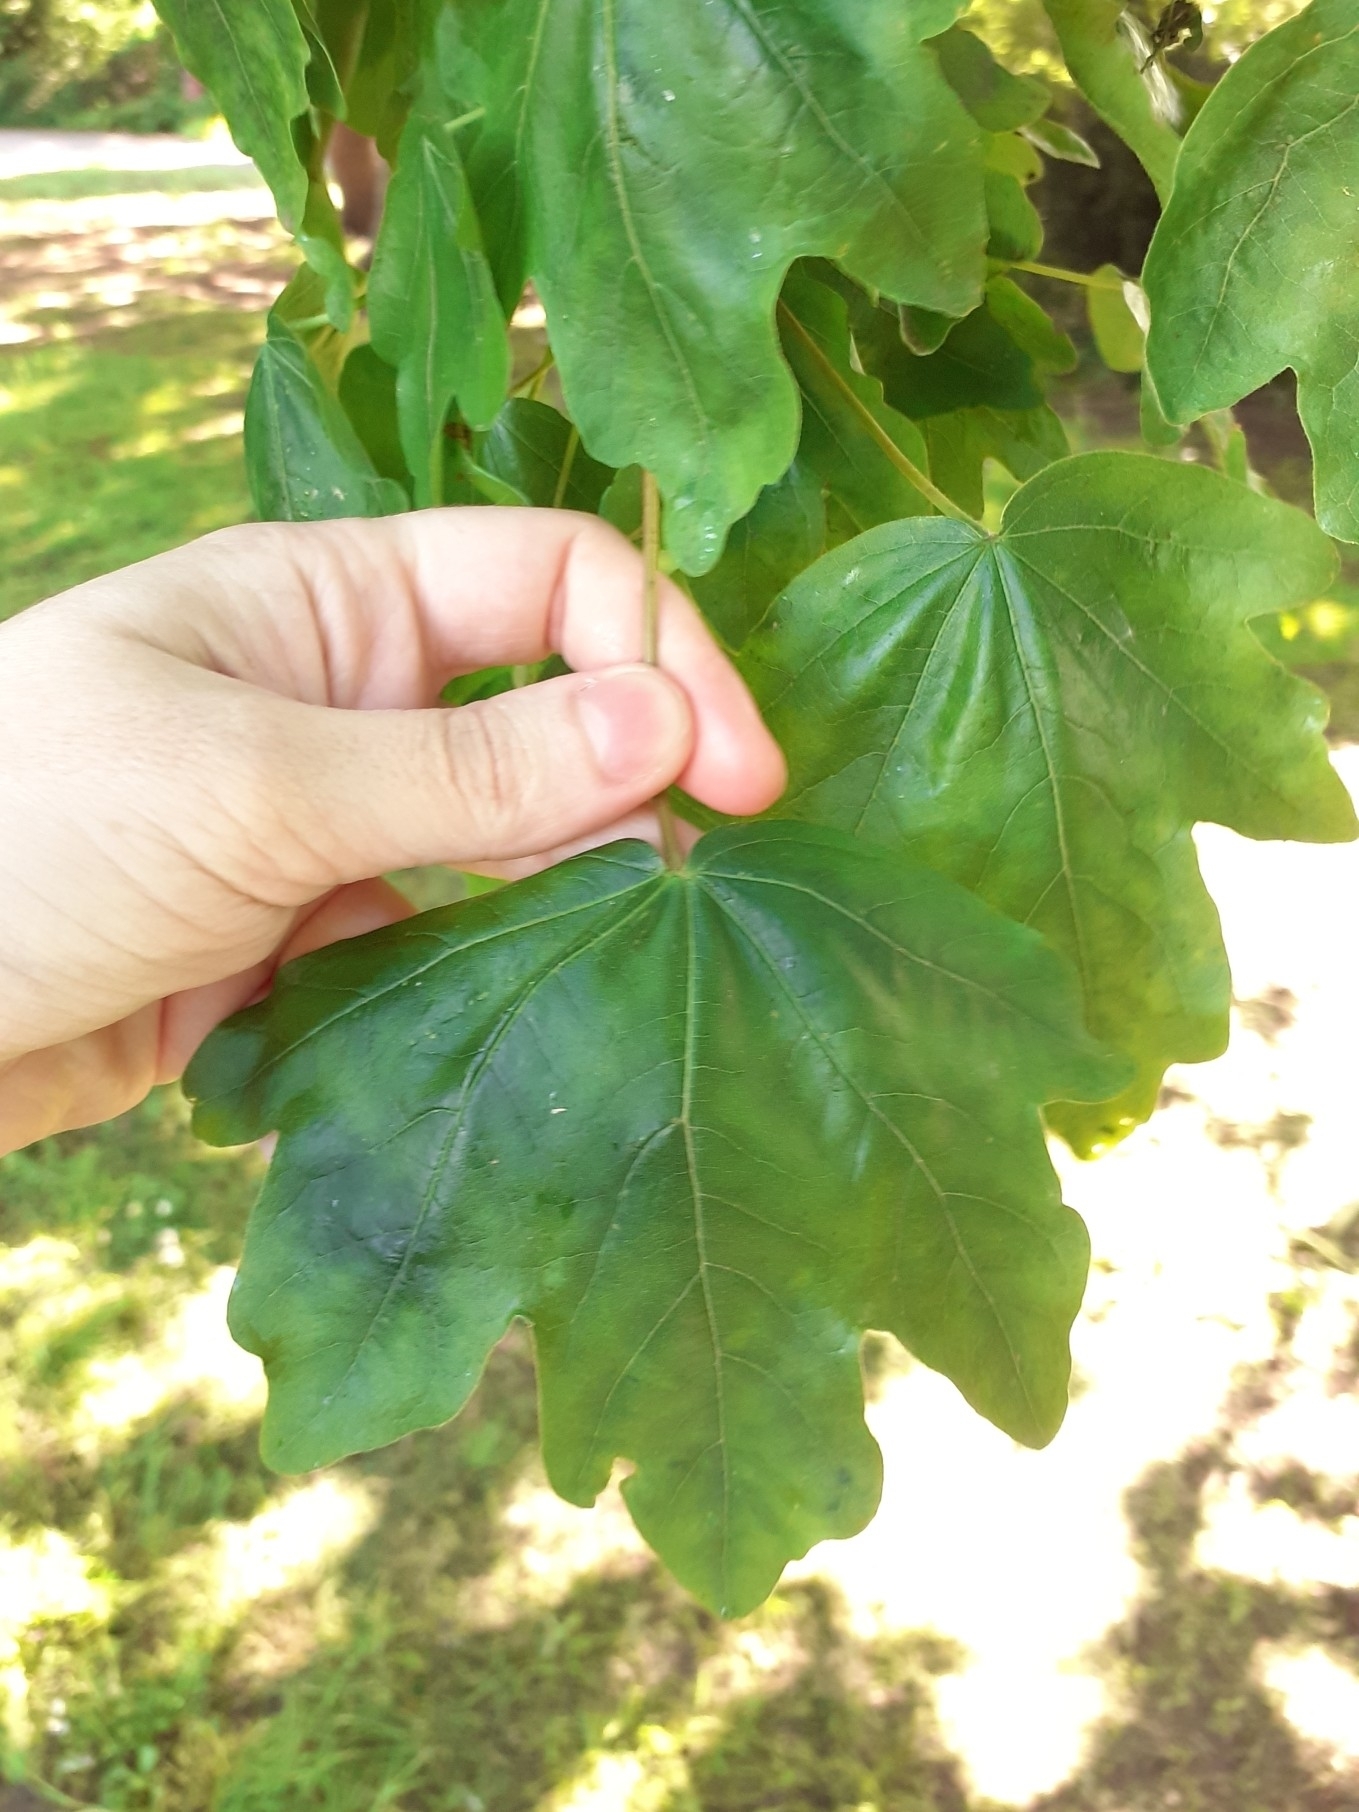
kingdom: Plantae
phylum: Tracheophyta
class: Magnoliopsida
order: Sapindales
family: Sapindaceae
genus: Acer
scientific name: Acer campestre
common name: Field maple
